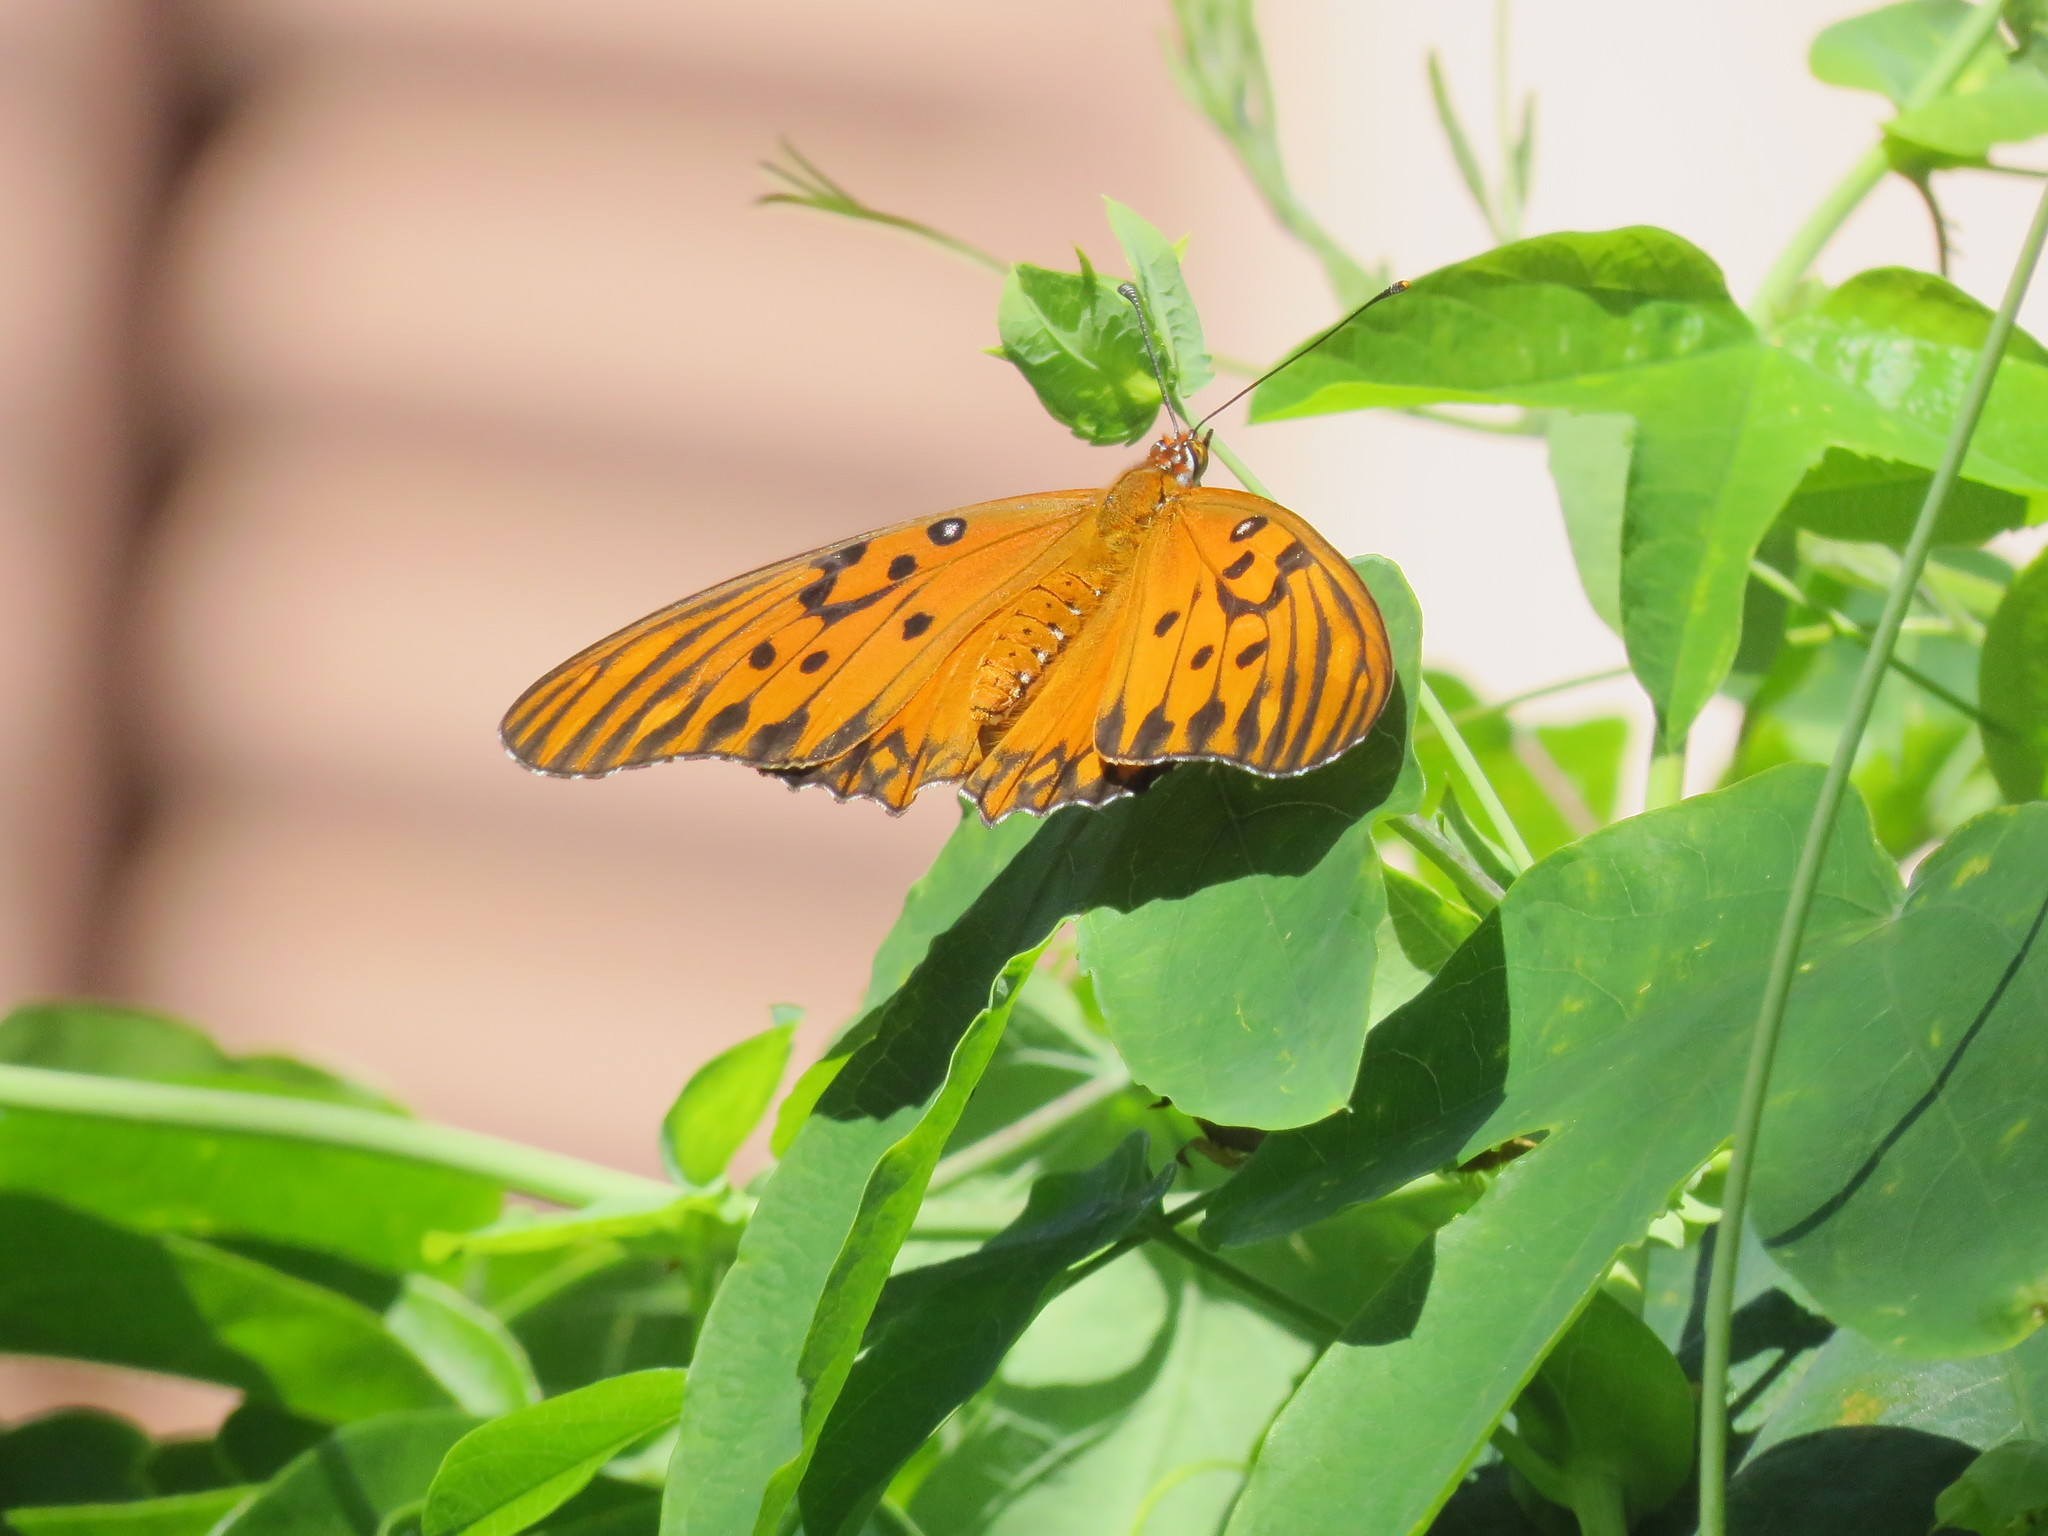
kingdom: Animalia
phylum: Arthropoda
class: Insecta
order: Lepidoptera
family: Nymphalidae
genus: Dione
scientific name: Dione vanillae
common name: Gulf fritillary
